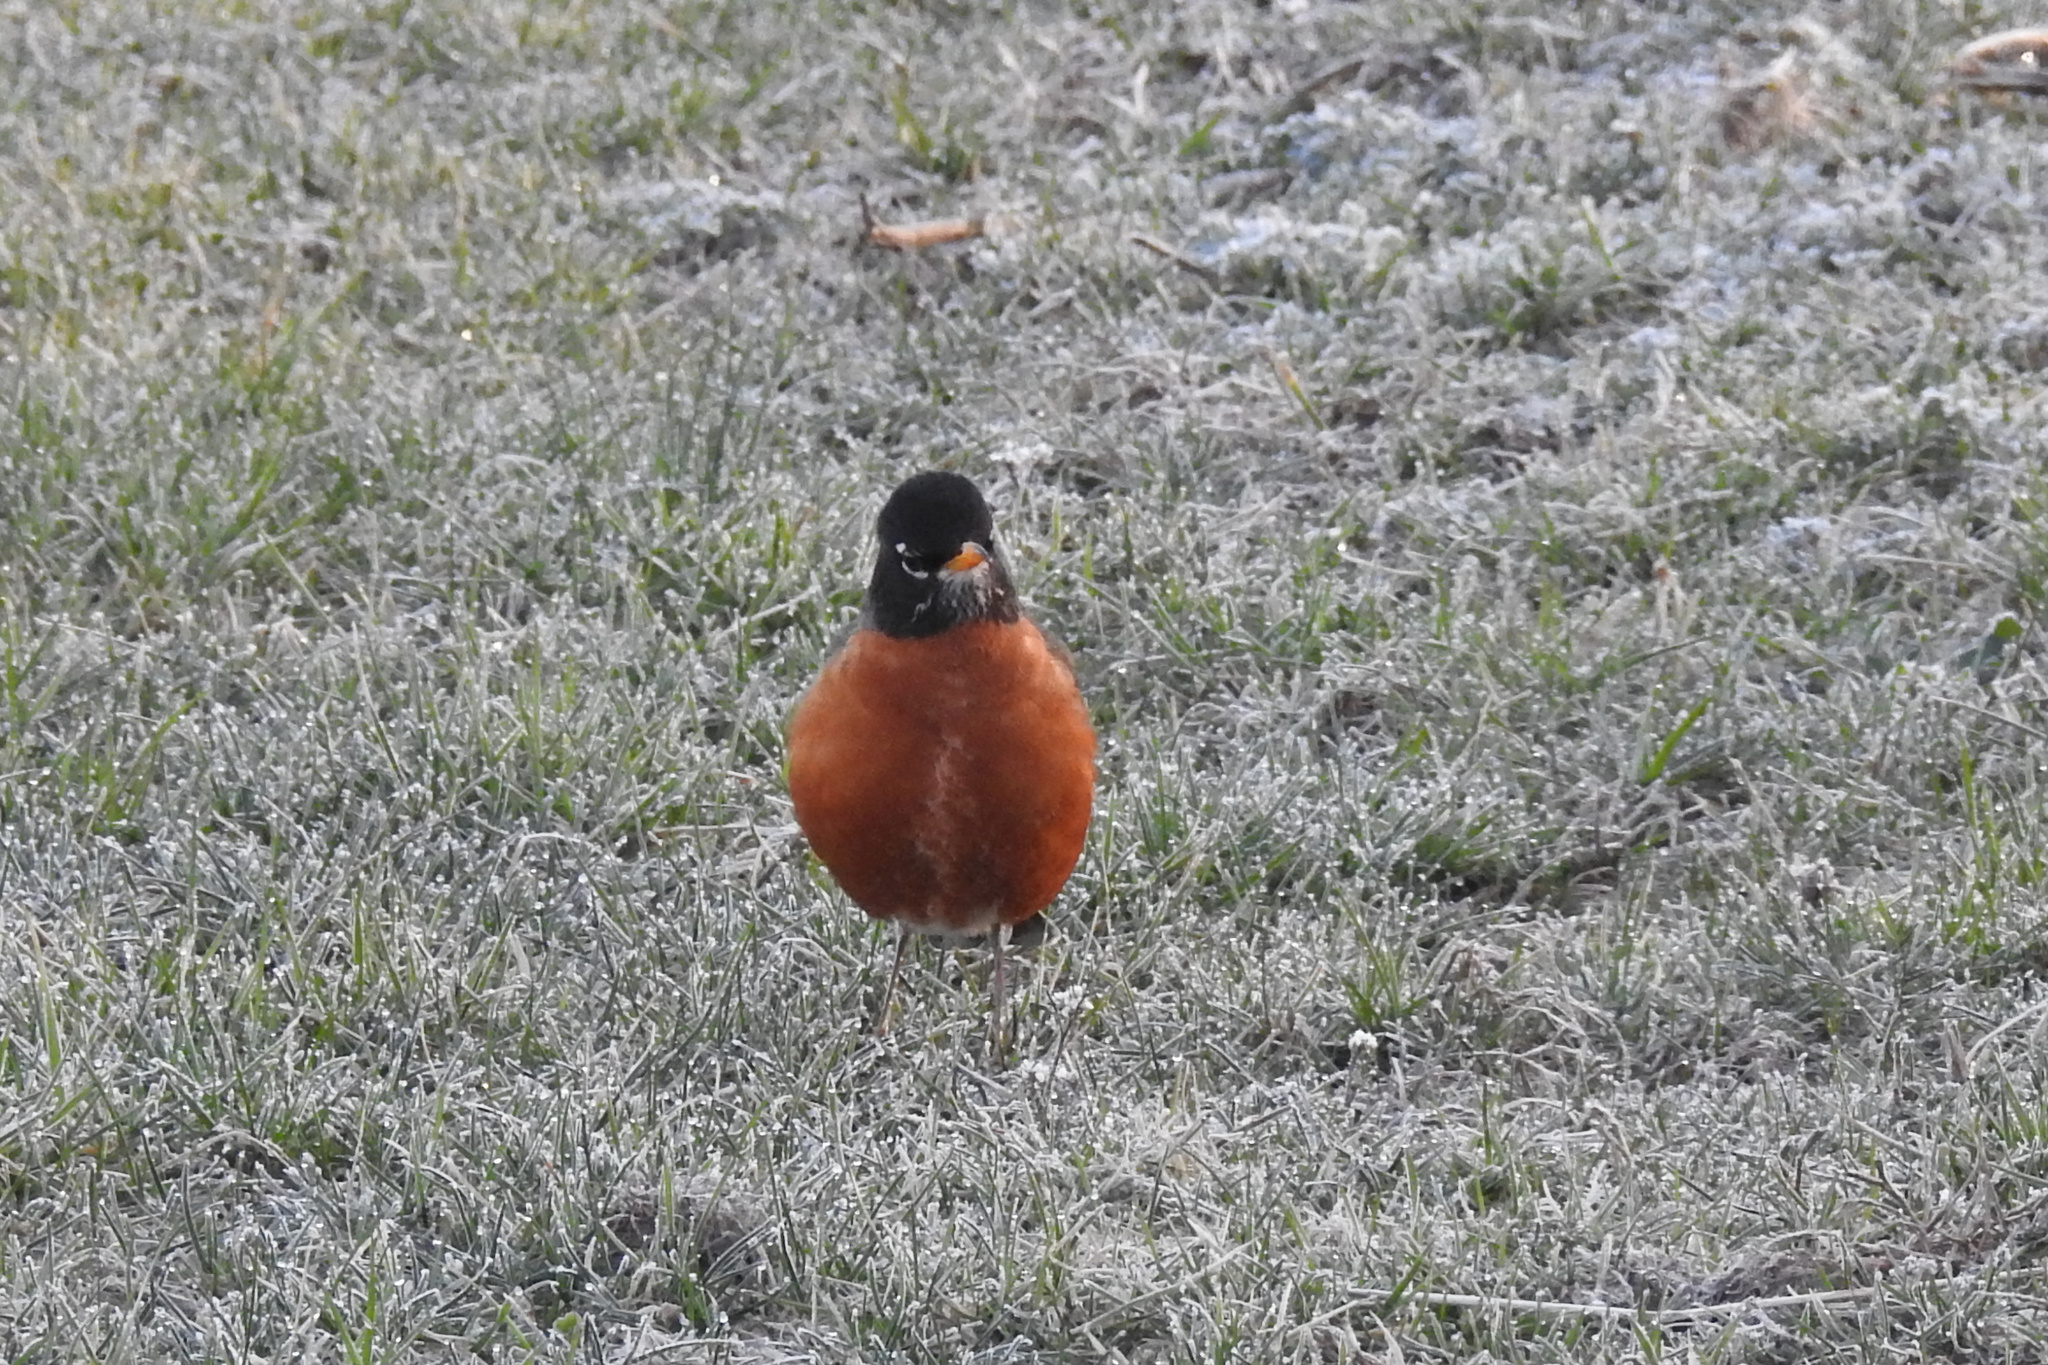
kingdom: Animalia
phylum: Chordata
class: Aves
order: Passeriformes
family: Turdidae
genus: Turdus
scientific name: Turdus migratorius
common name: American robin
